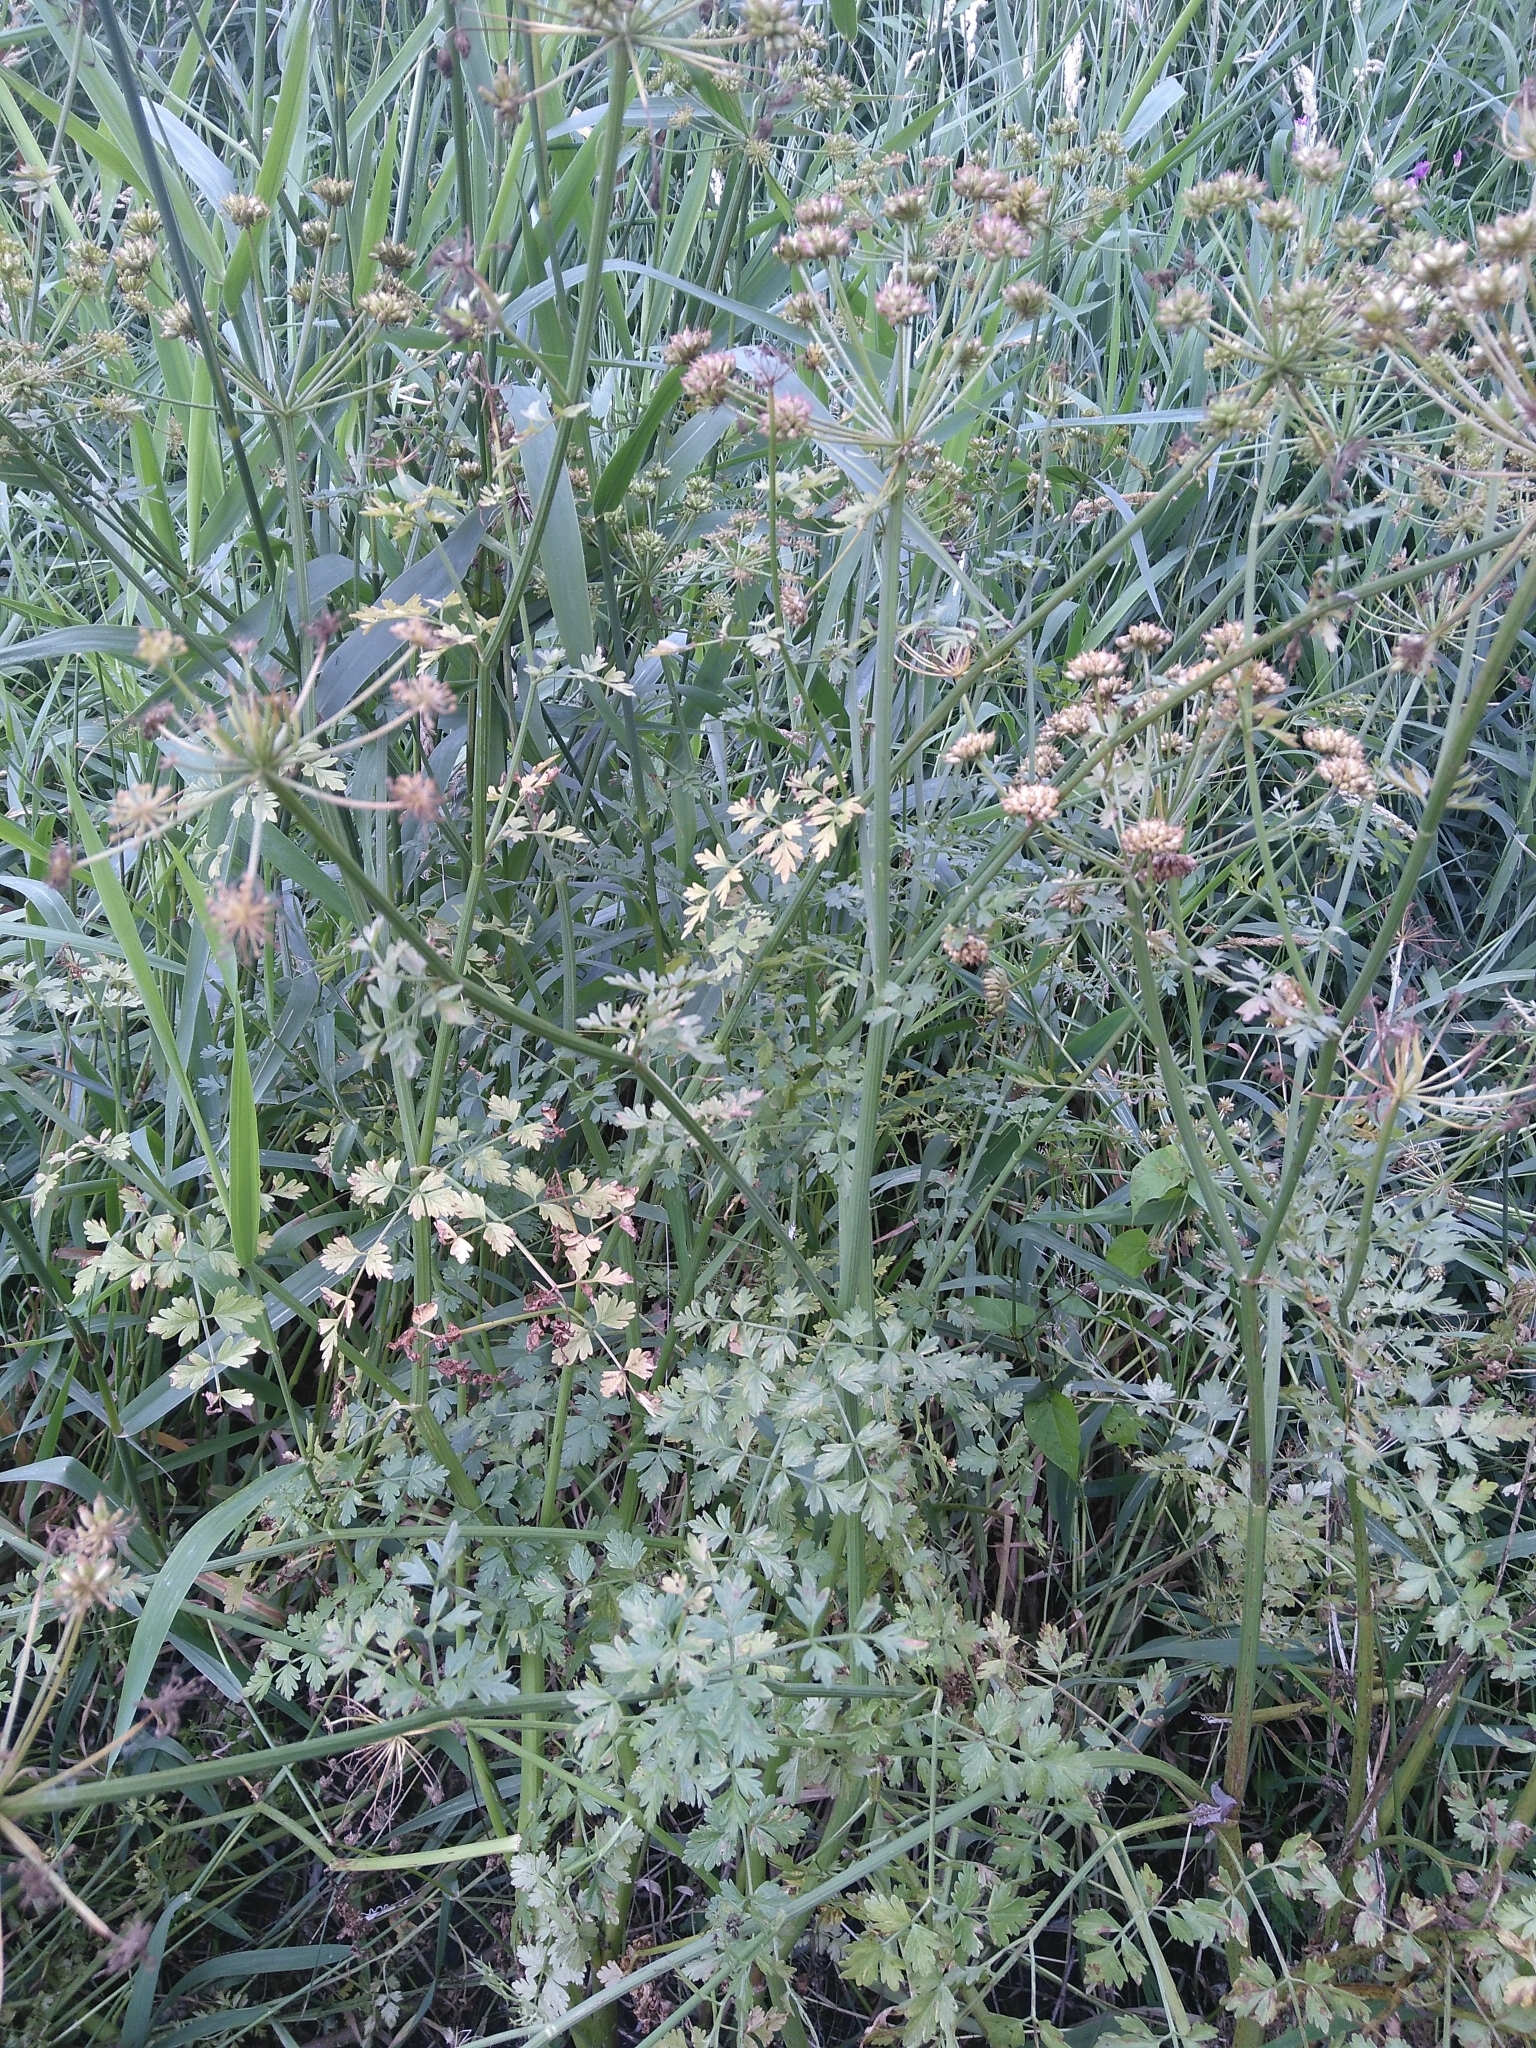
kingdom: Plantae
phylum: Tracheophyta
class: Magnoliopsida
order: Apiales
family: Apiaceae
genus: Oenanthe
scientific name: Oenanthe crocata
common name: Hemlock water-dropwort
